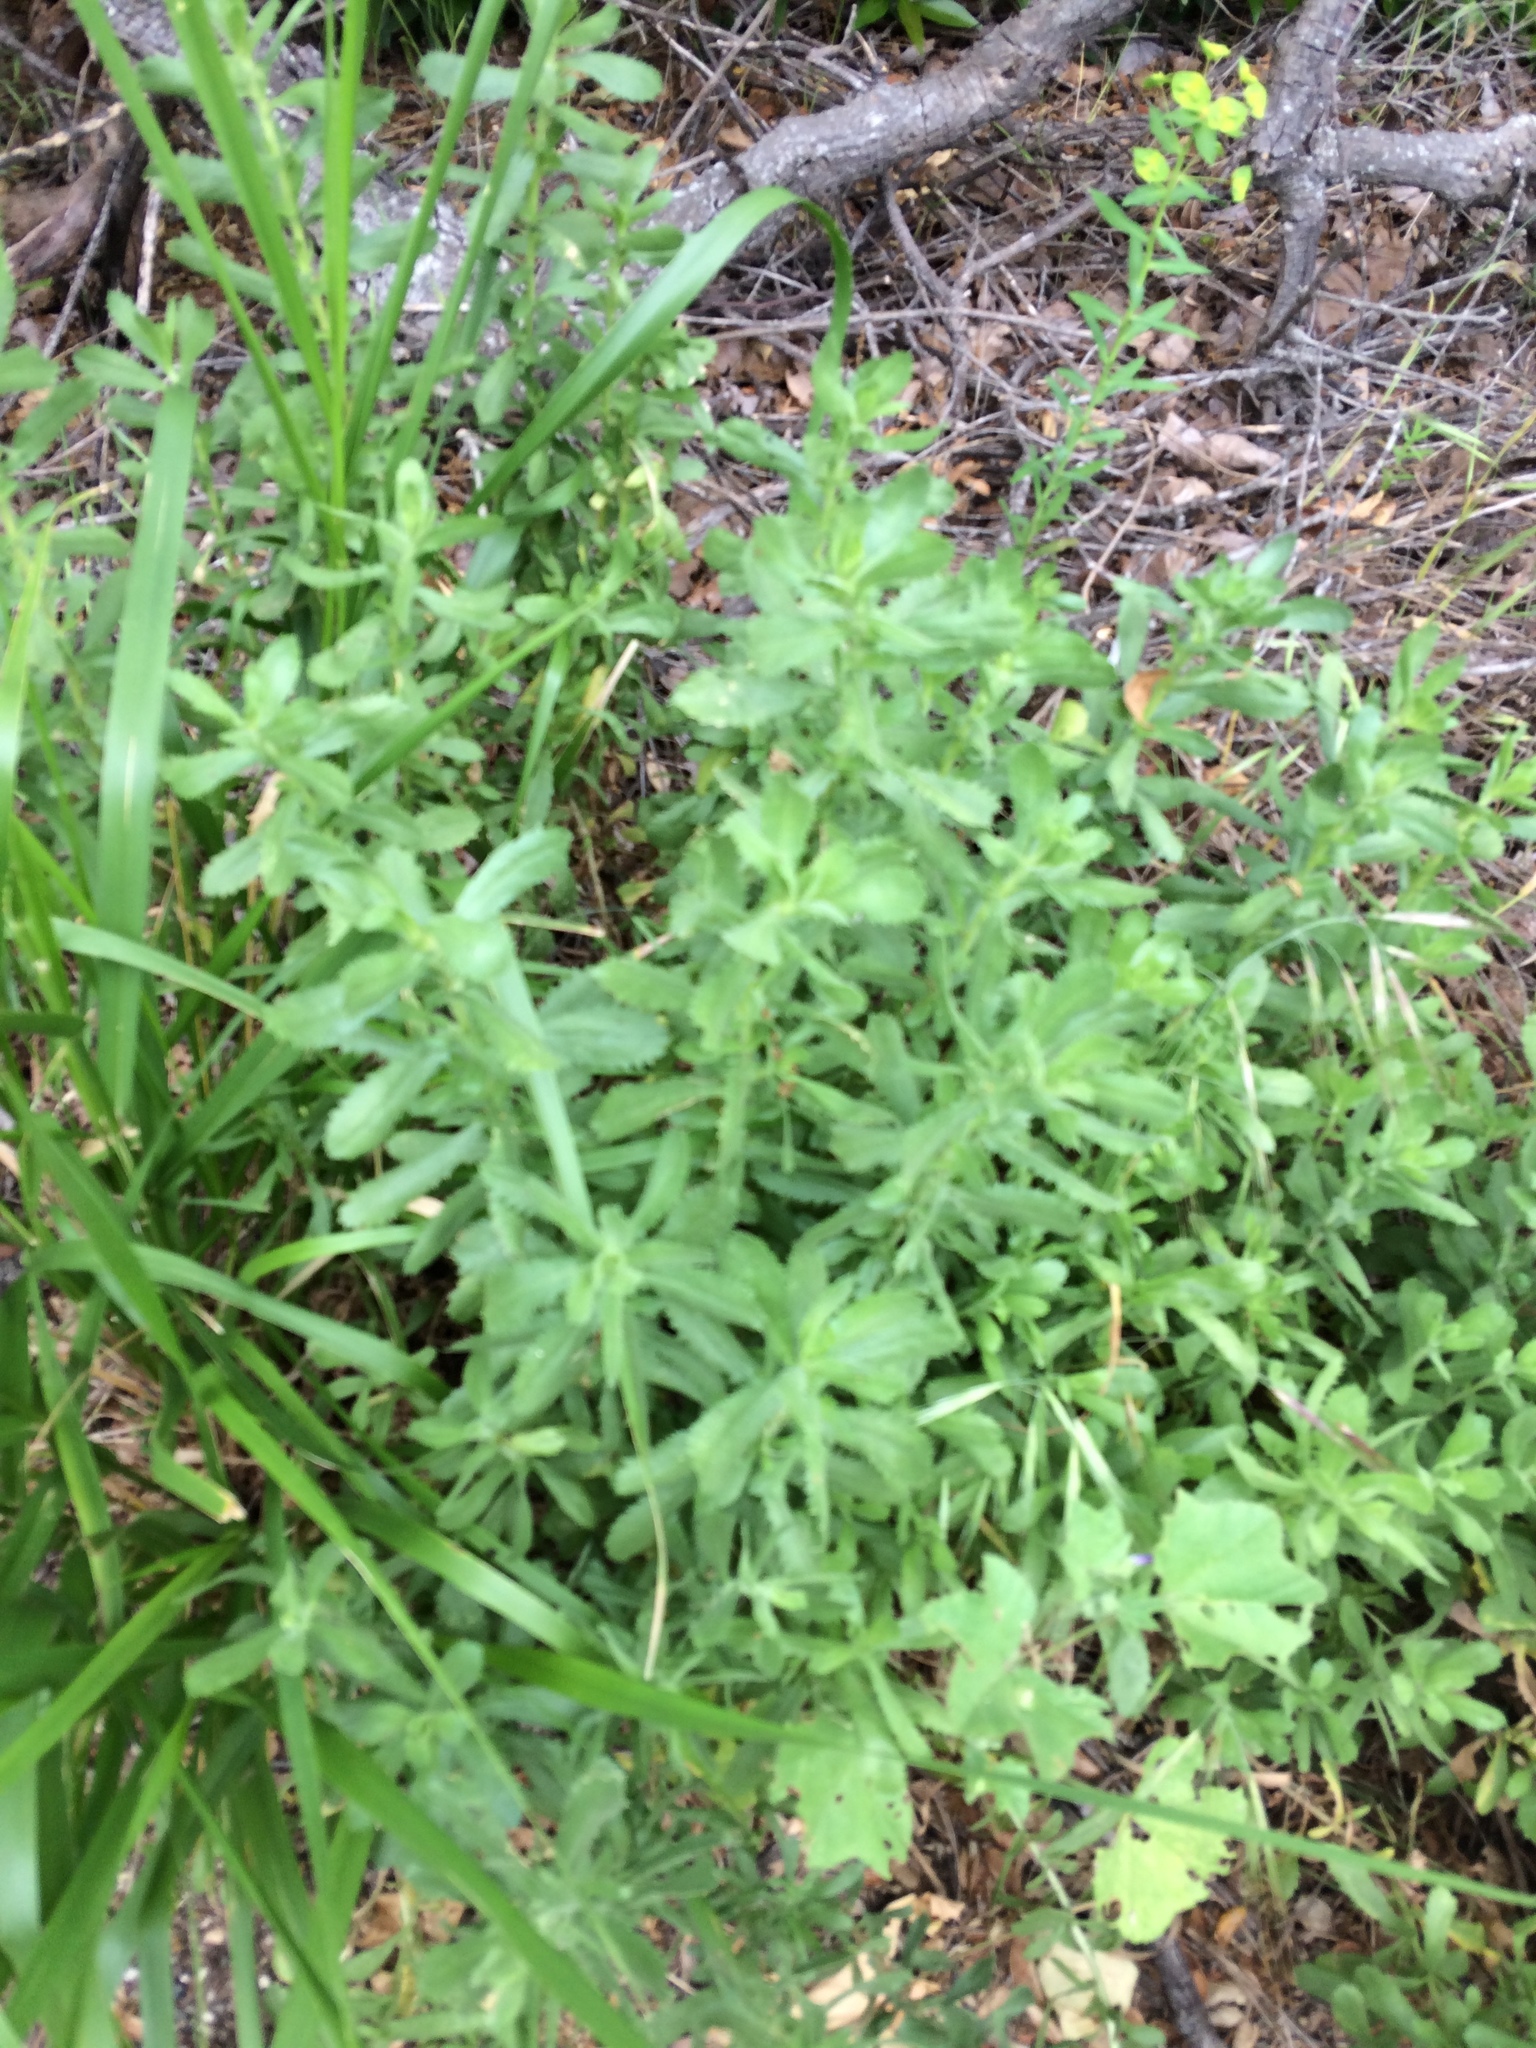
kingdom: Plantae
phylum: Tracheophyta
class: Magnoliopsida
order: Asterales
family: Asteraceae
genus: Isocoma
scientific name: Isocoma menziesii
